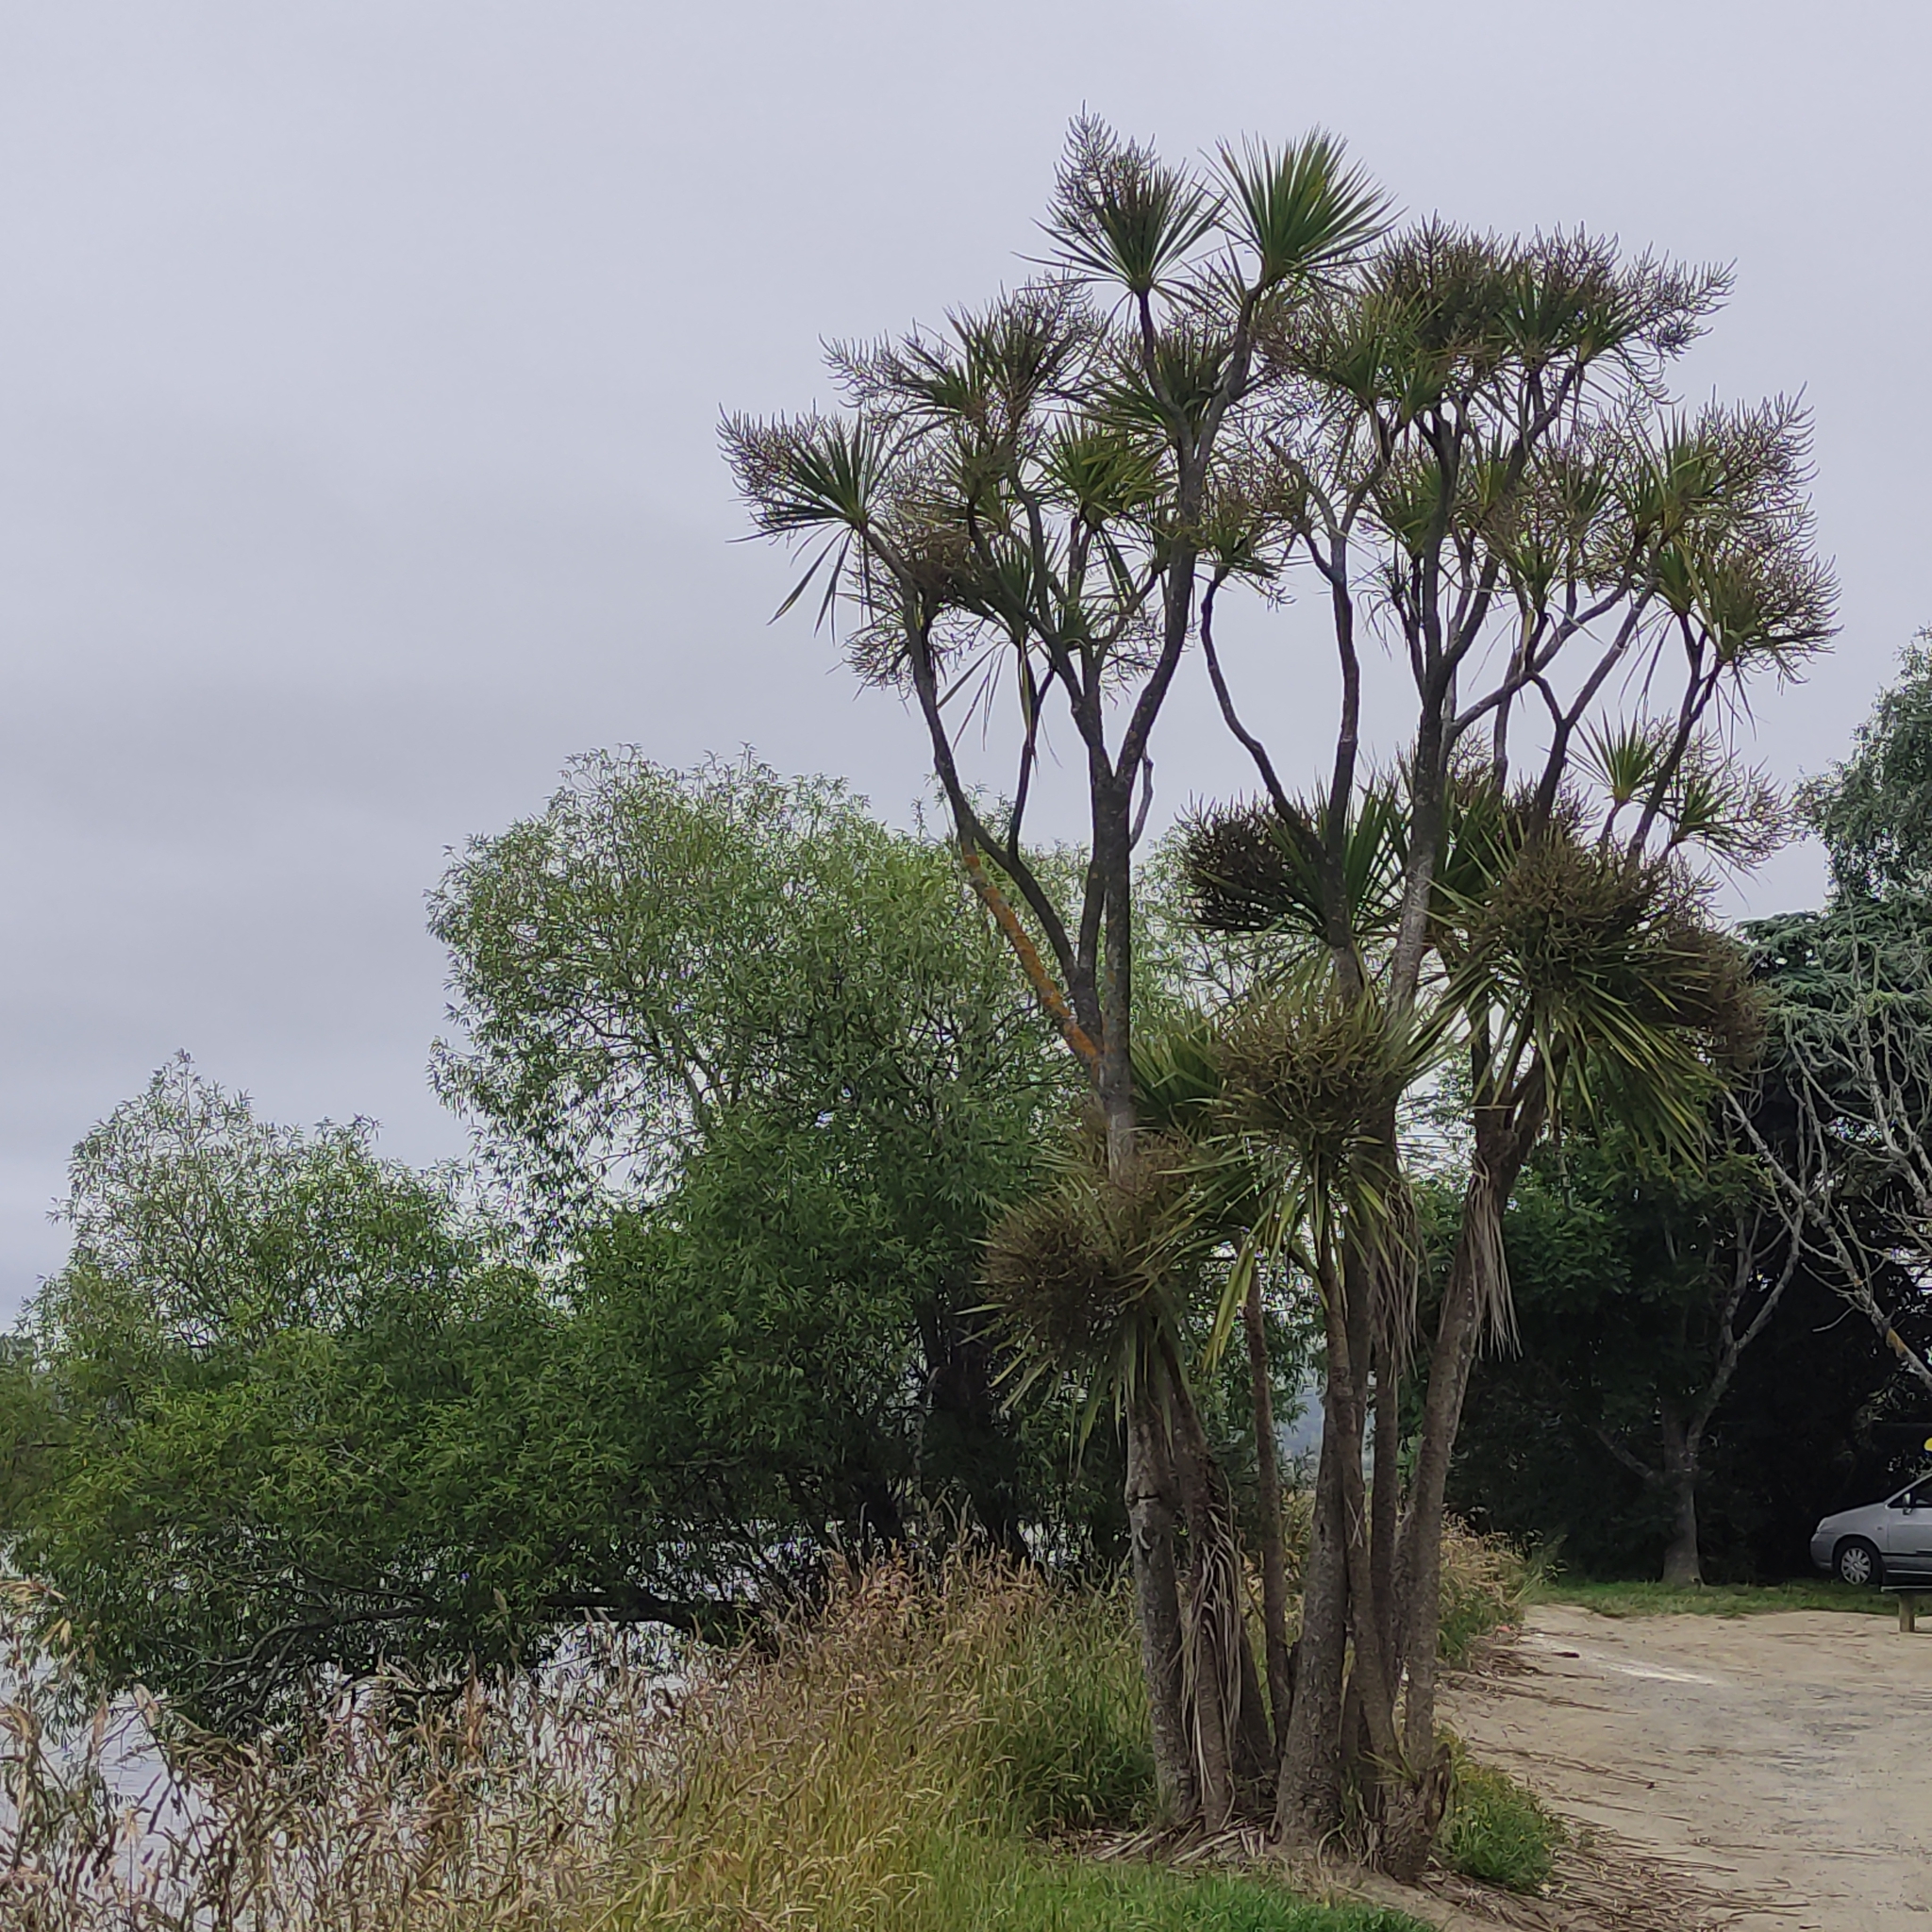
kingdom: Plantae
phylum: Tracheophyta
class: Liliopsida
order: Asparagales
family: Asparagaceae
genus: Cordyline
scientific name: Cordyline australis
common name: Cabbage-palm
